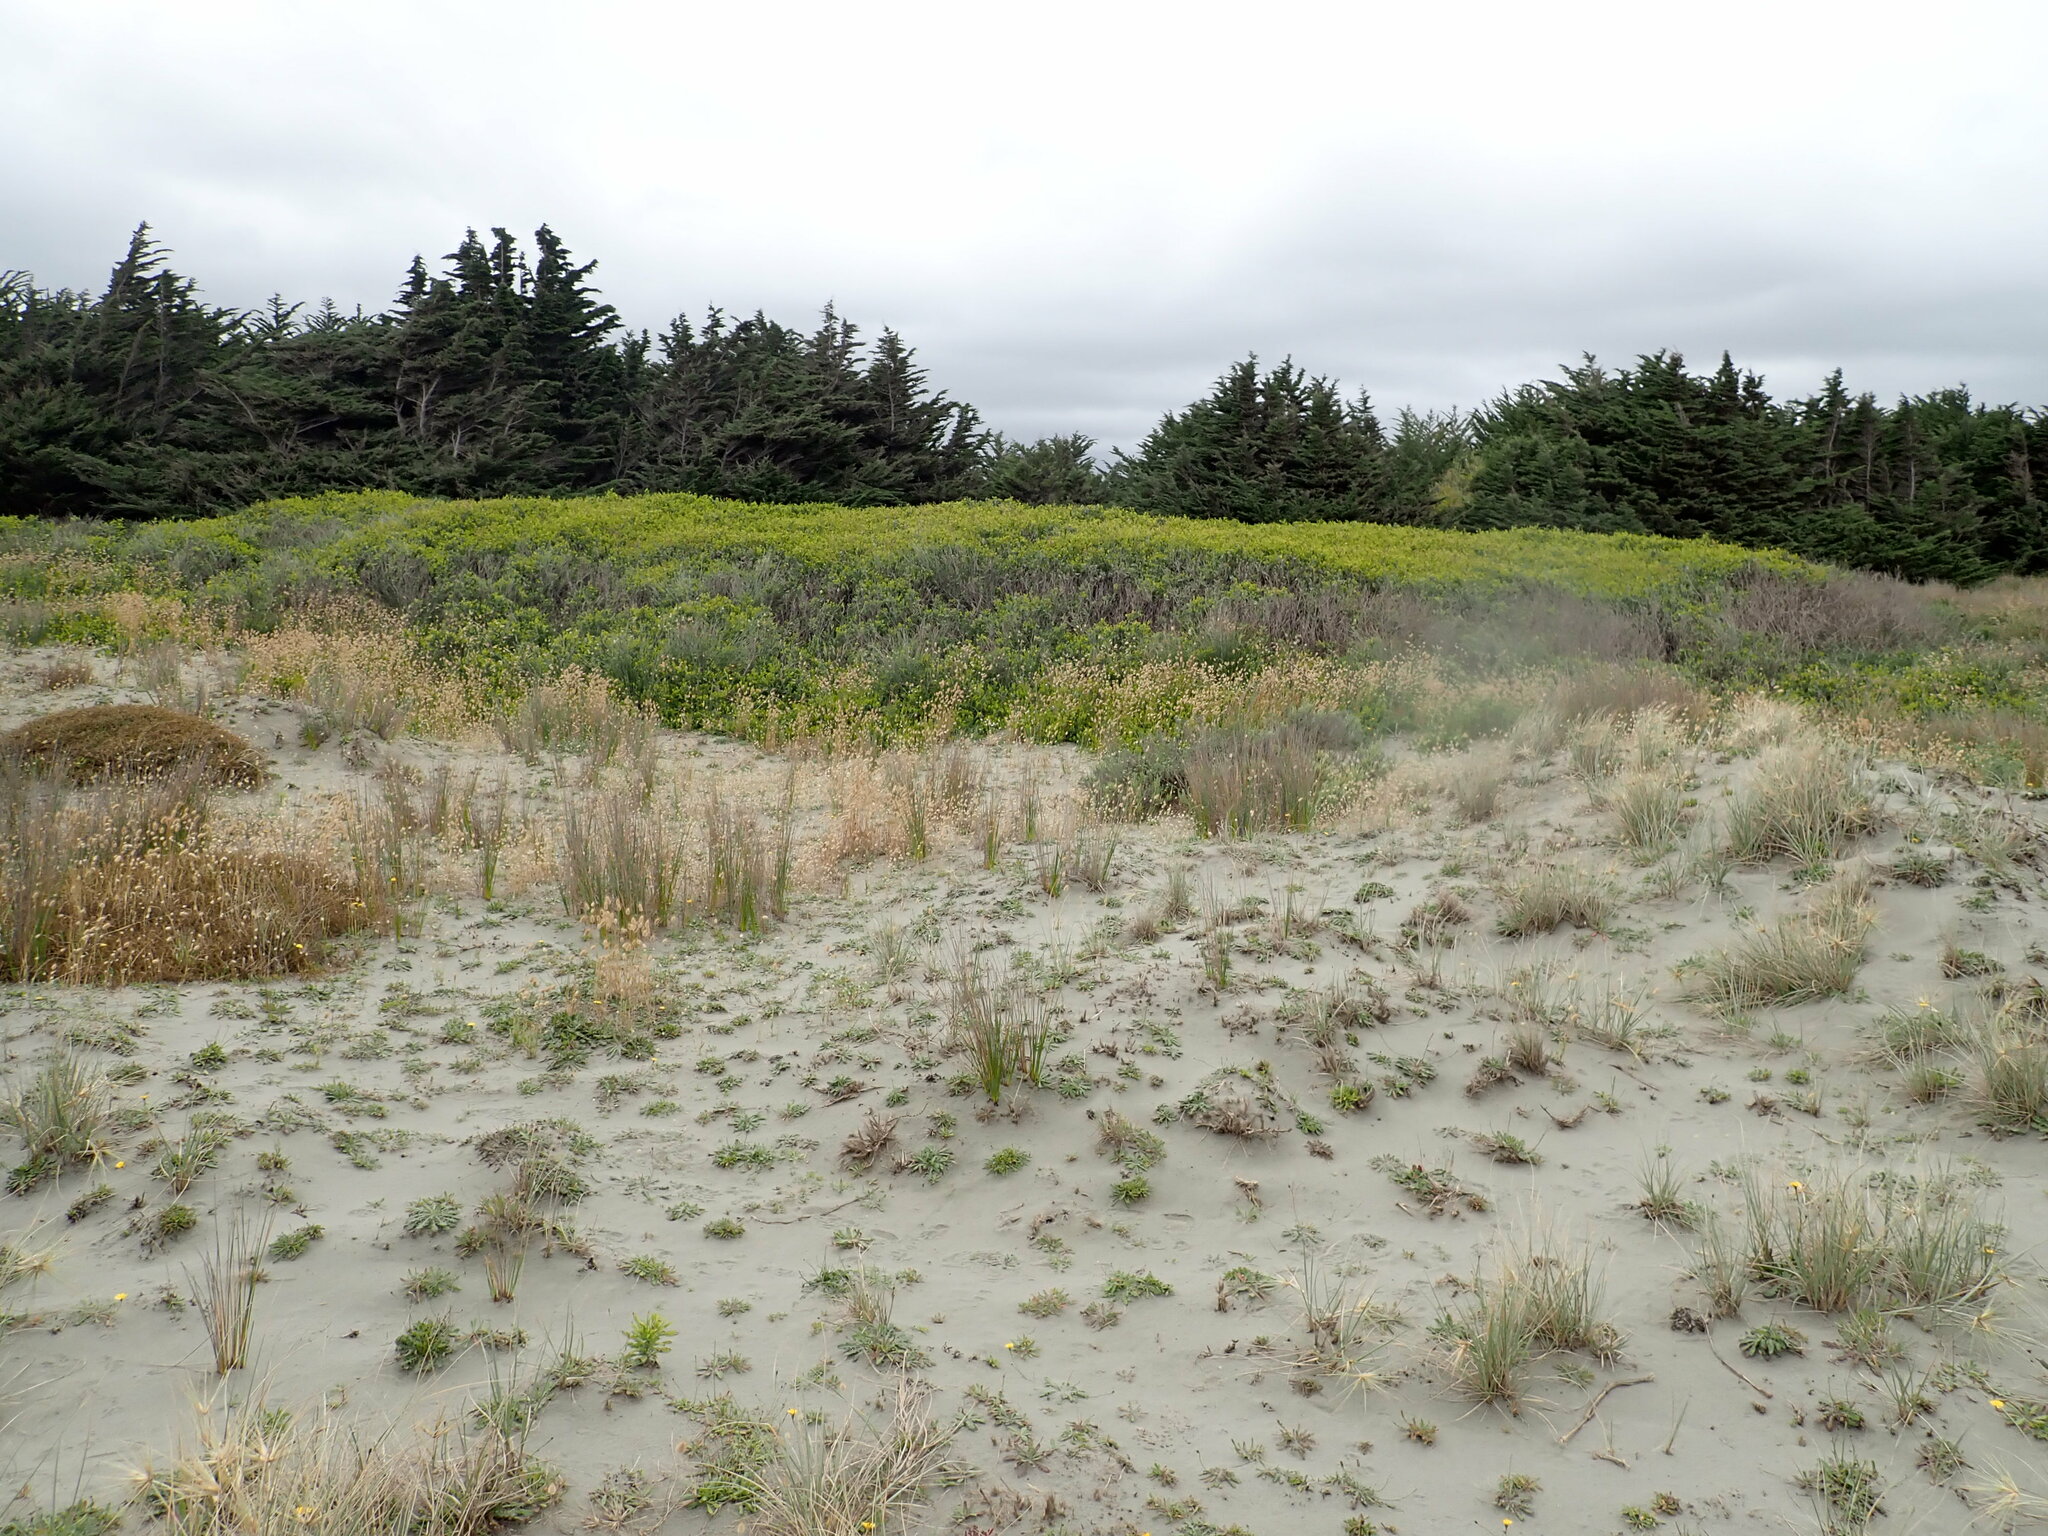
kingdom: Plantae
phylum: Tracheophyta
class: Magnoliopsida
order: Fabales
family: Fabaceae
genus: Acacia
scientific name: Acacia longifolia
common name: Sydney golden wattle
